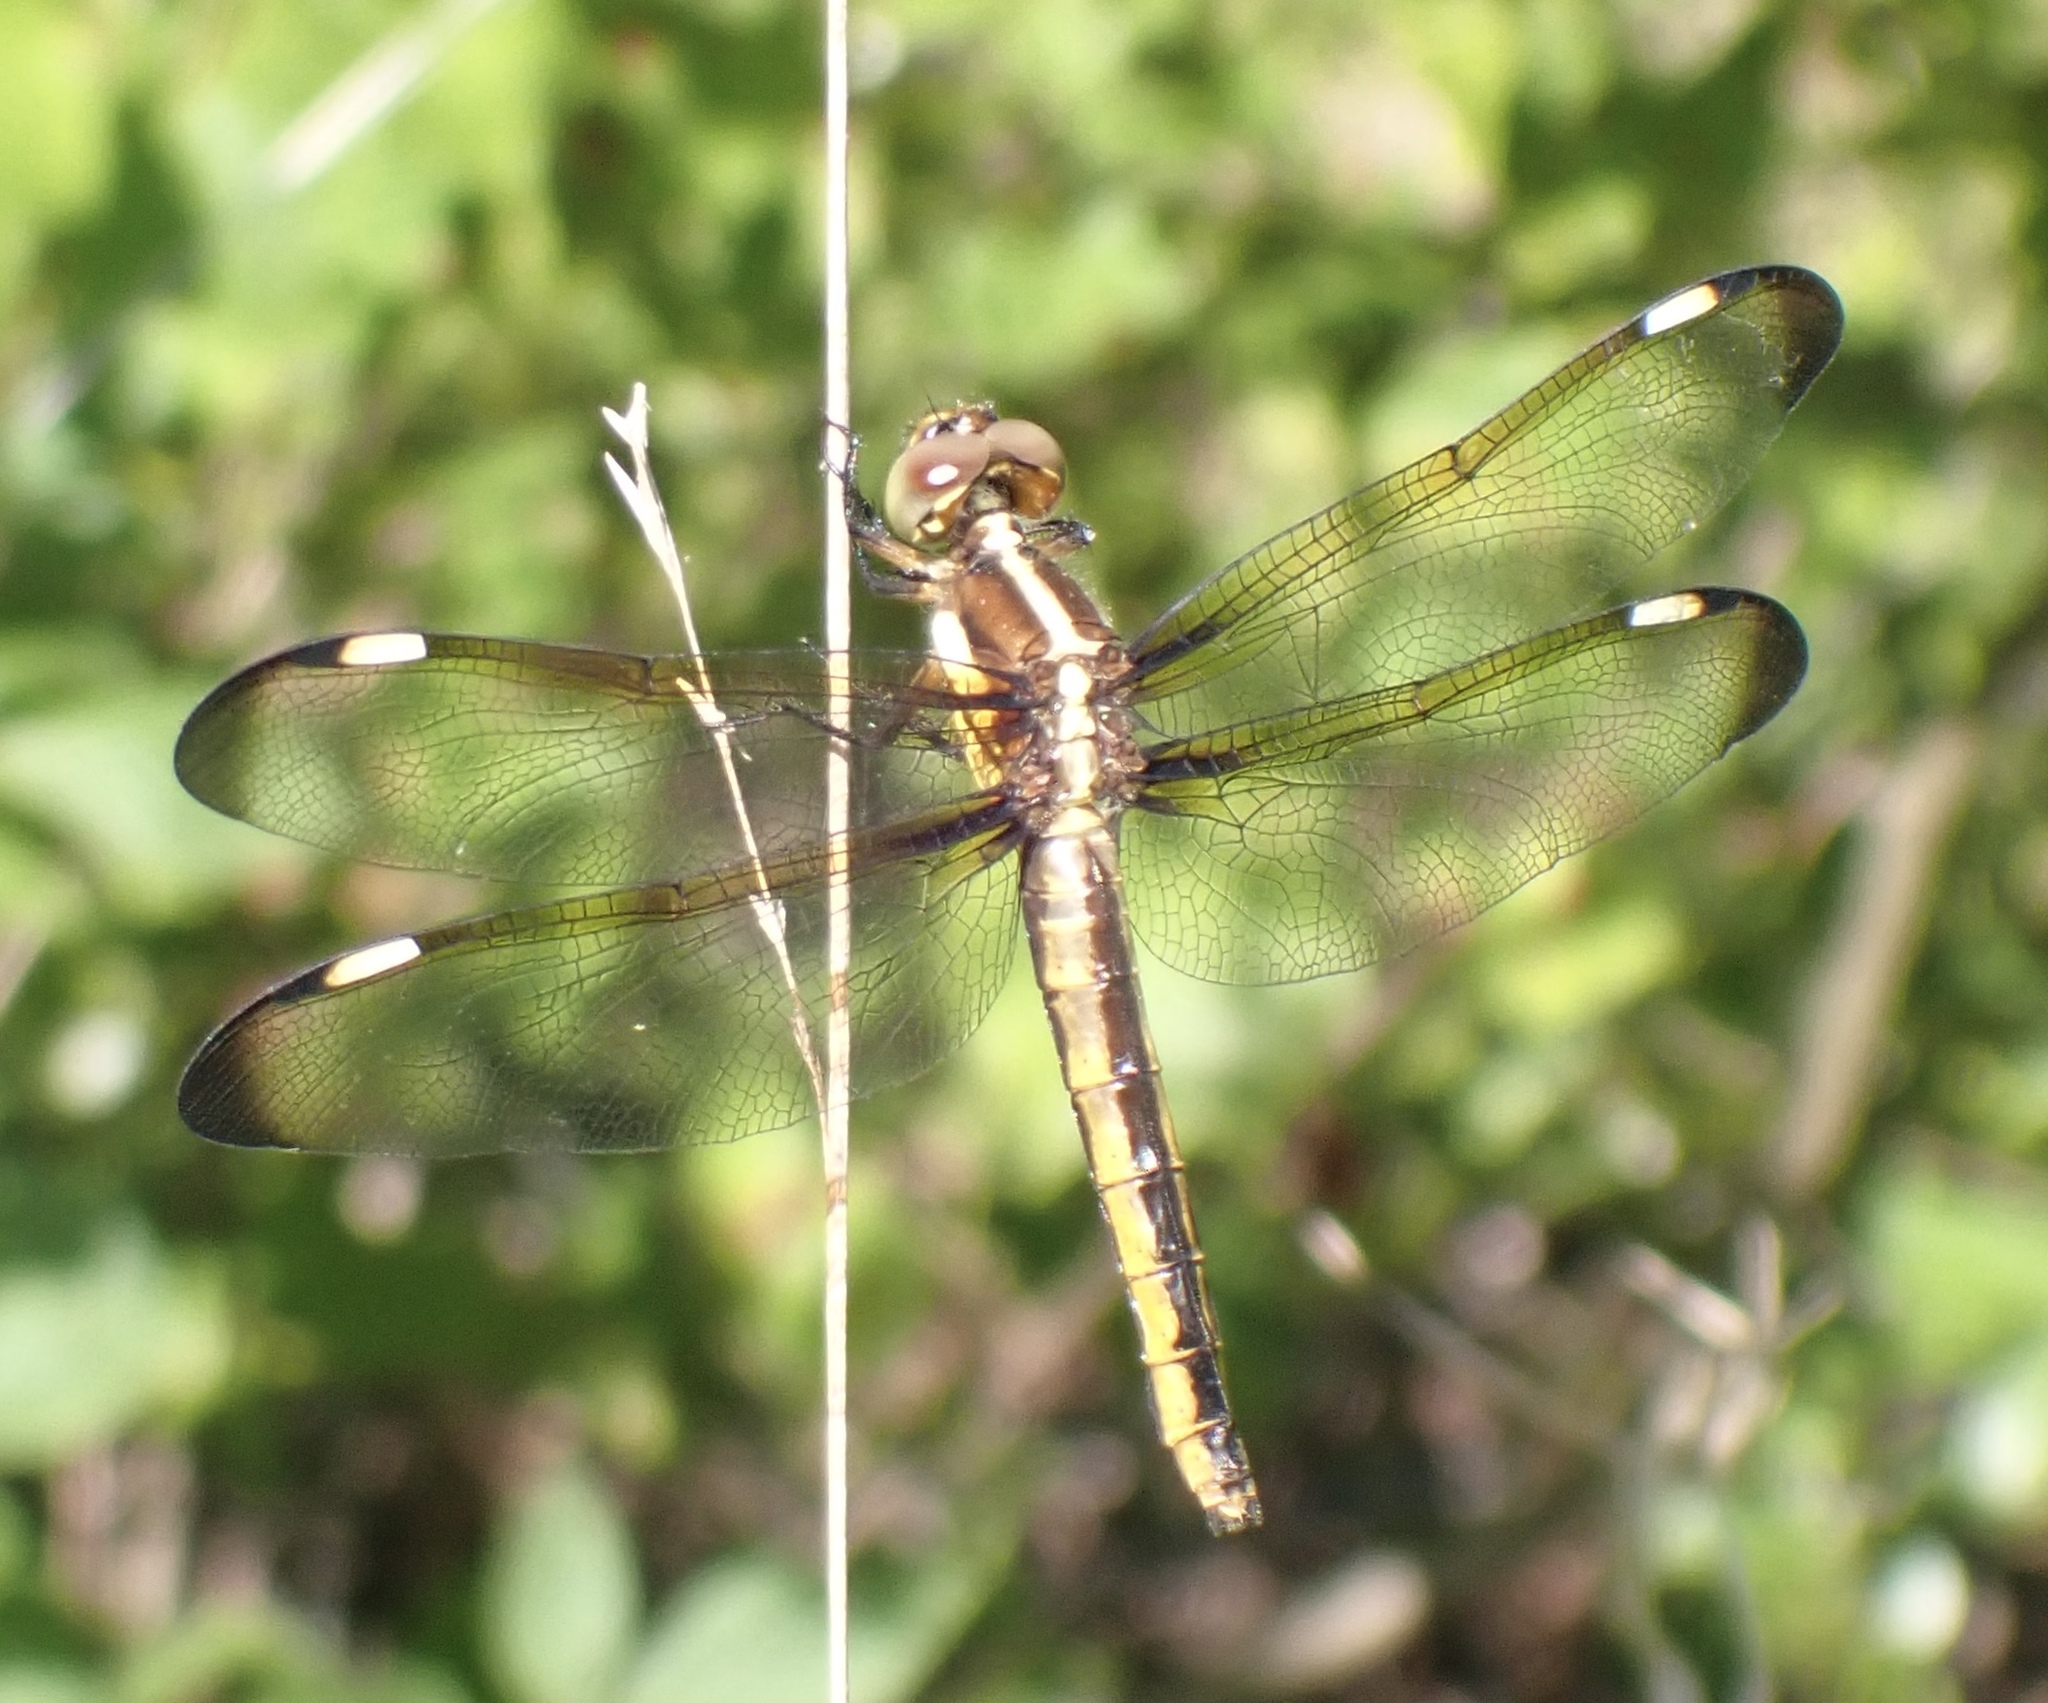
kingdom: Animalia
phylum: Arthropoda
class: Insecta
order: Odonata
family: Libellulidae
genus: Libellula
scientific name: Libellula cyanea
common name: Spangled skimmer
